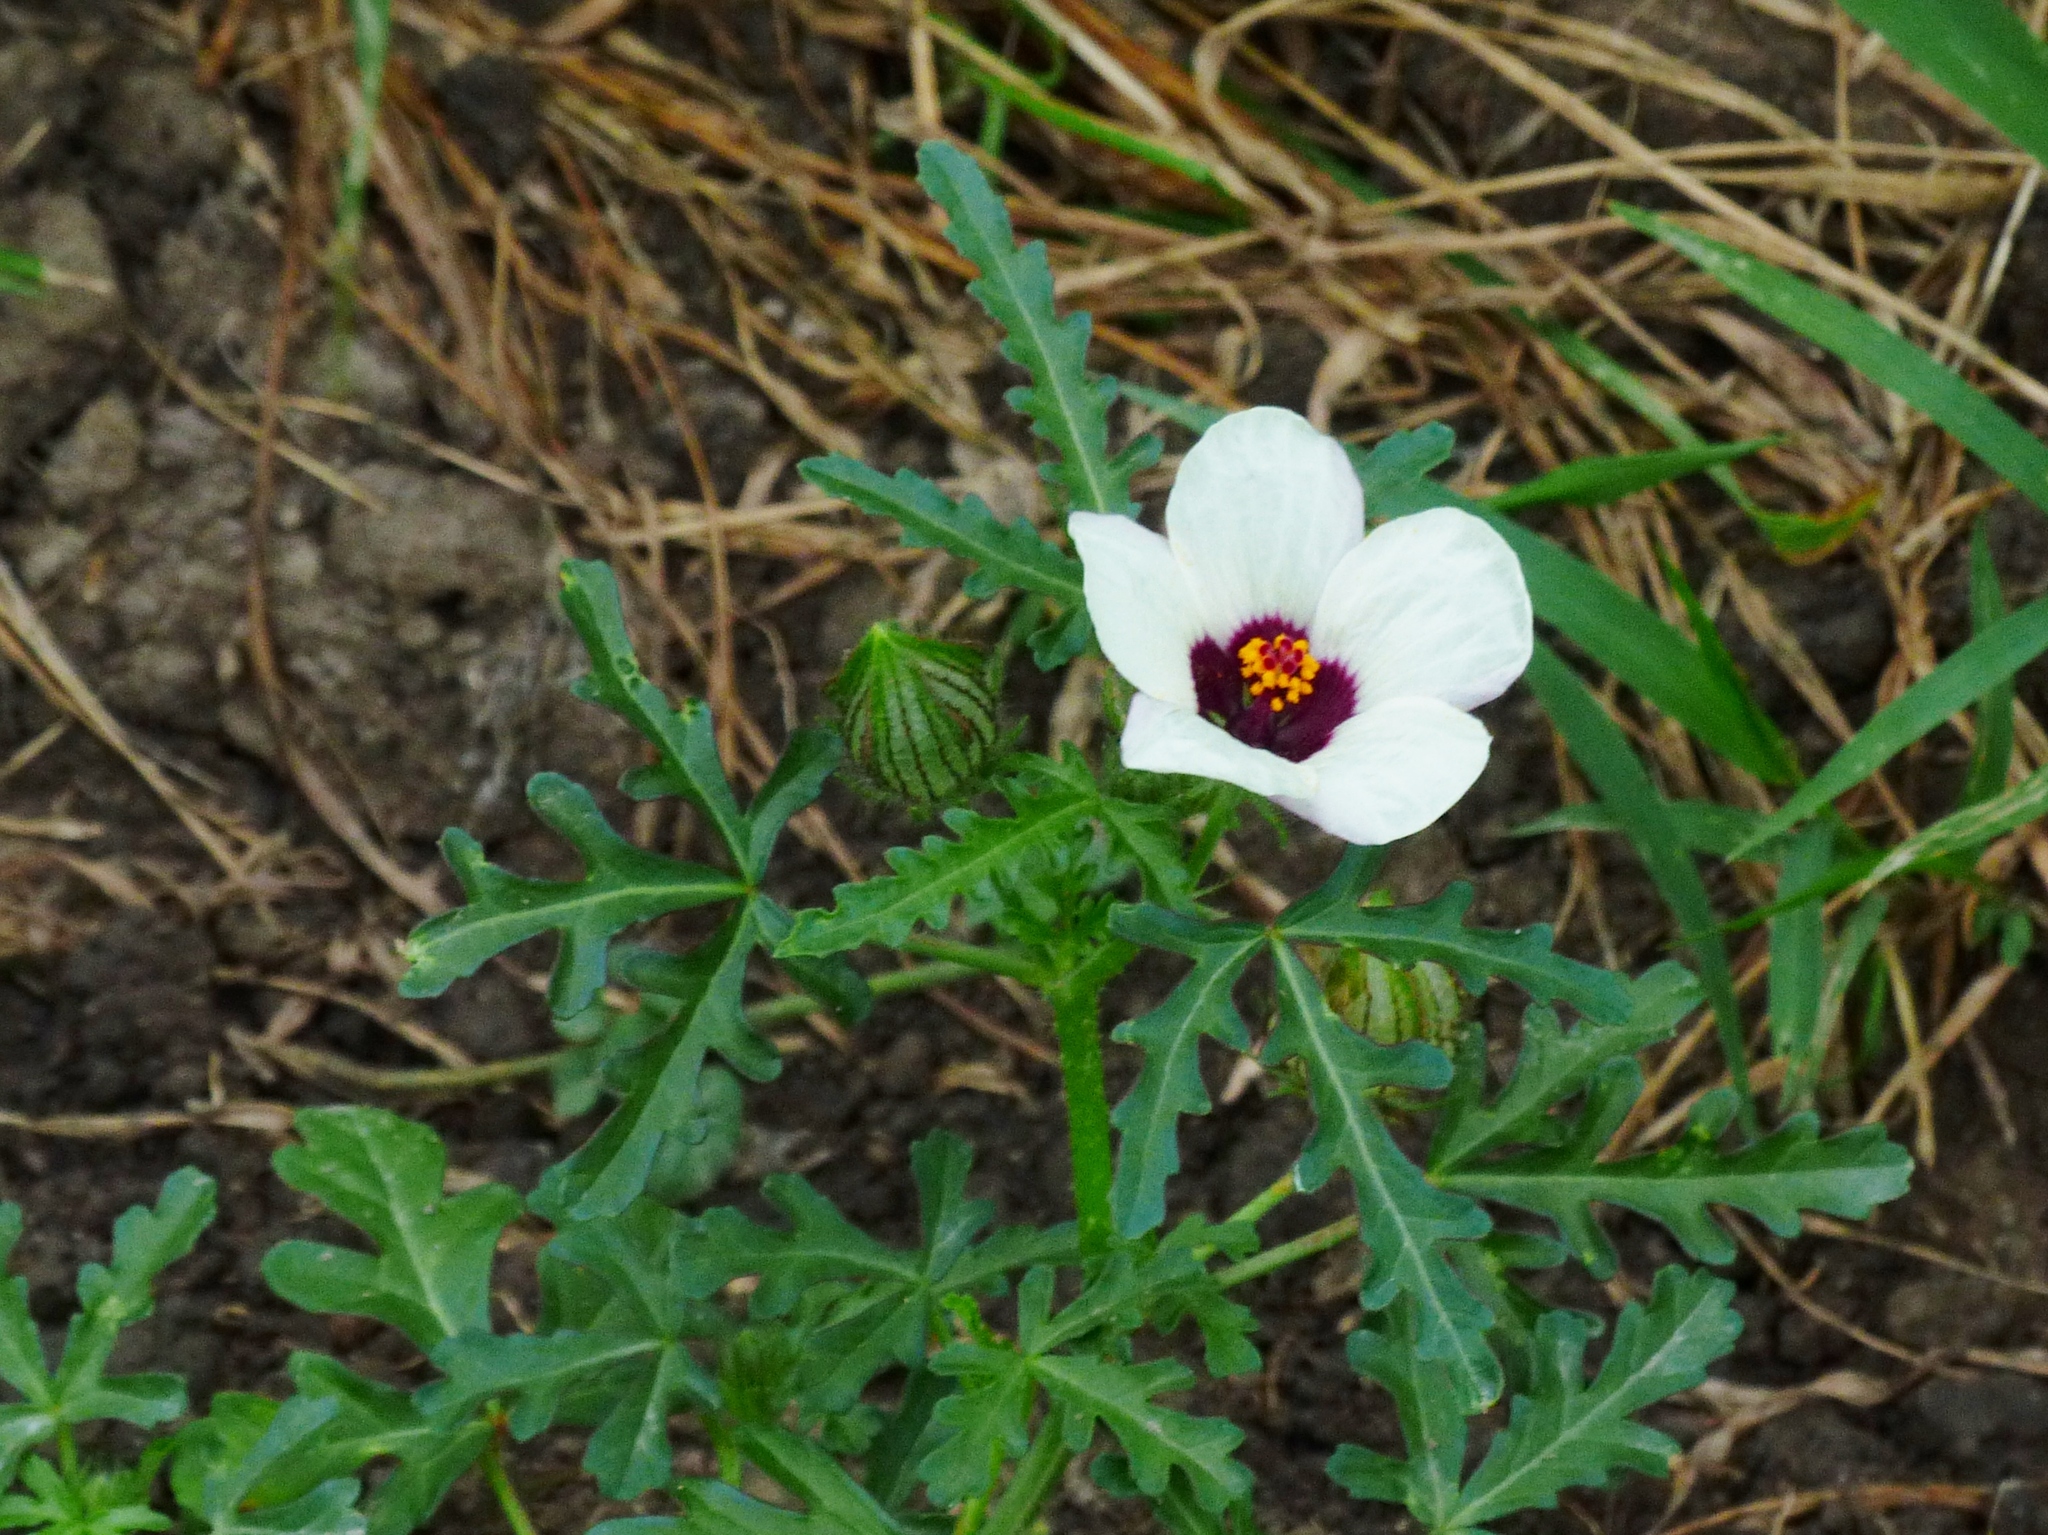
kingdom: Plantae
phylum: Tracheophyta
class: Magnoliopsida
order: Malvales
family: Malvaceae
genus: Hibiscus
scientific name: Hibiscus trionum
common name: Bladder ketmia
